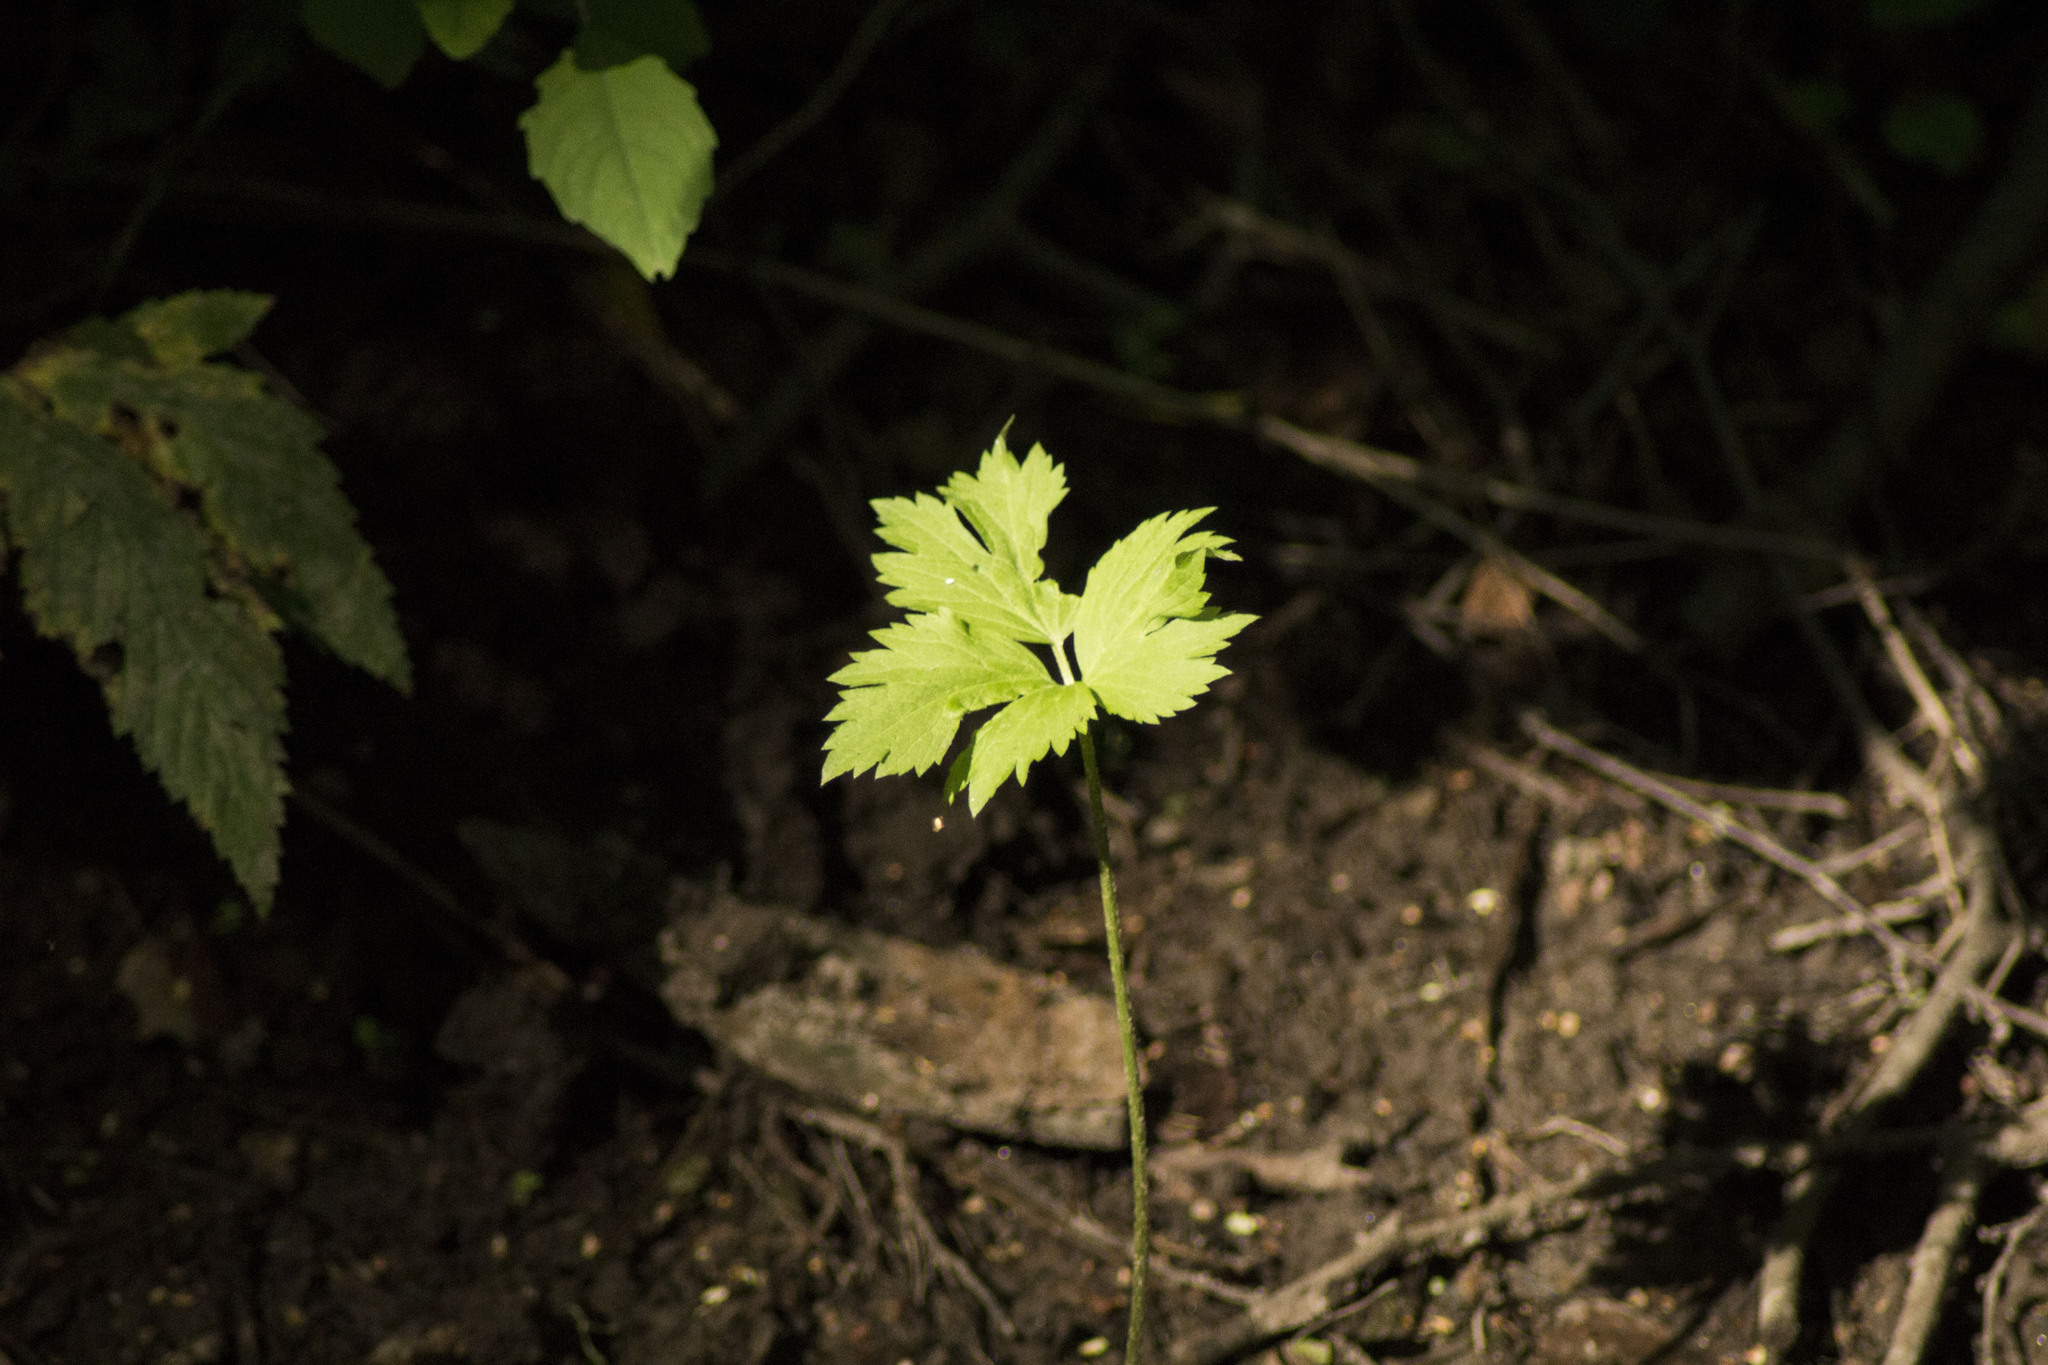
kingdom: Plantae
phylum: Tracheophyta
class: Magnoliopsida
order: Ranunculales
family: Ranunculaceae
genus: Ranunculus
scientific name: Ranunculus repens
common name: Creeping buttercup
